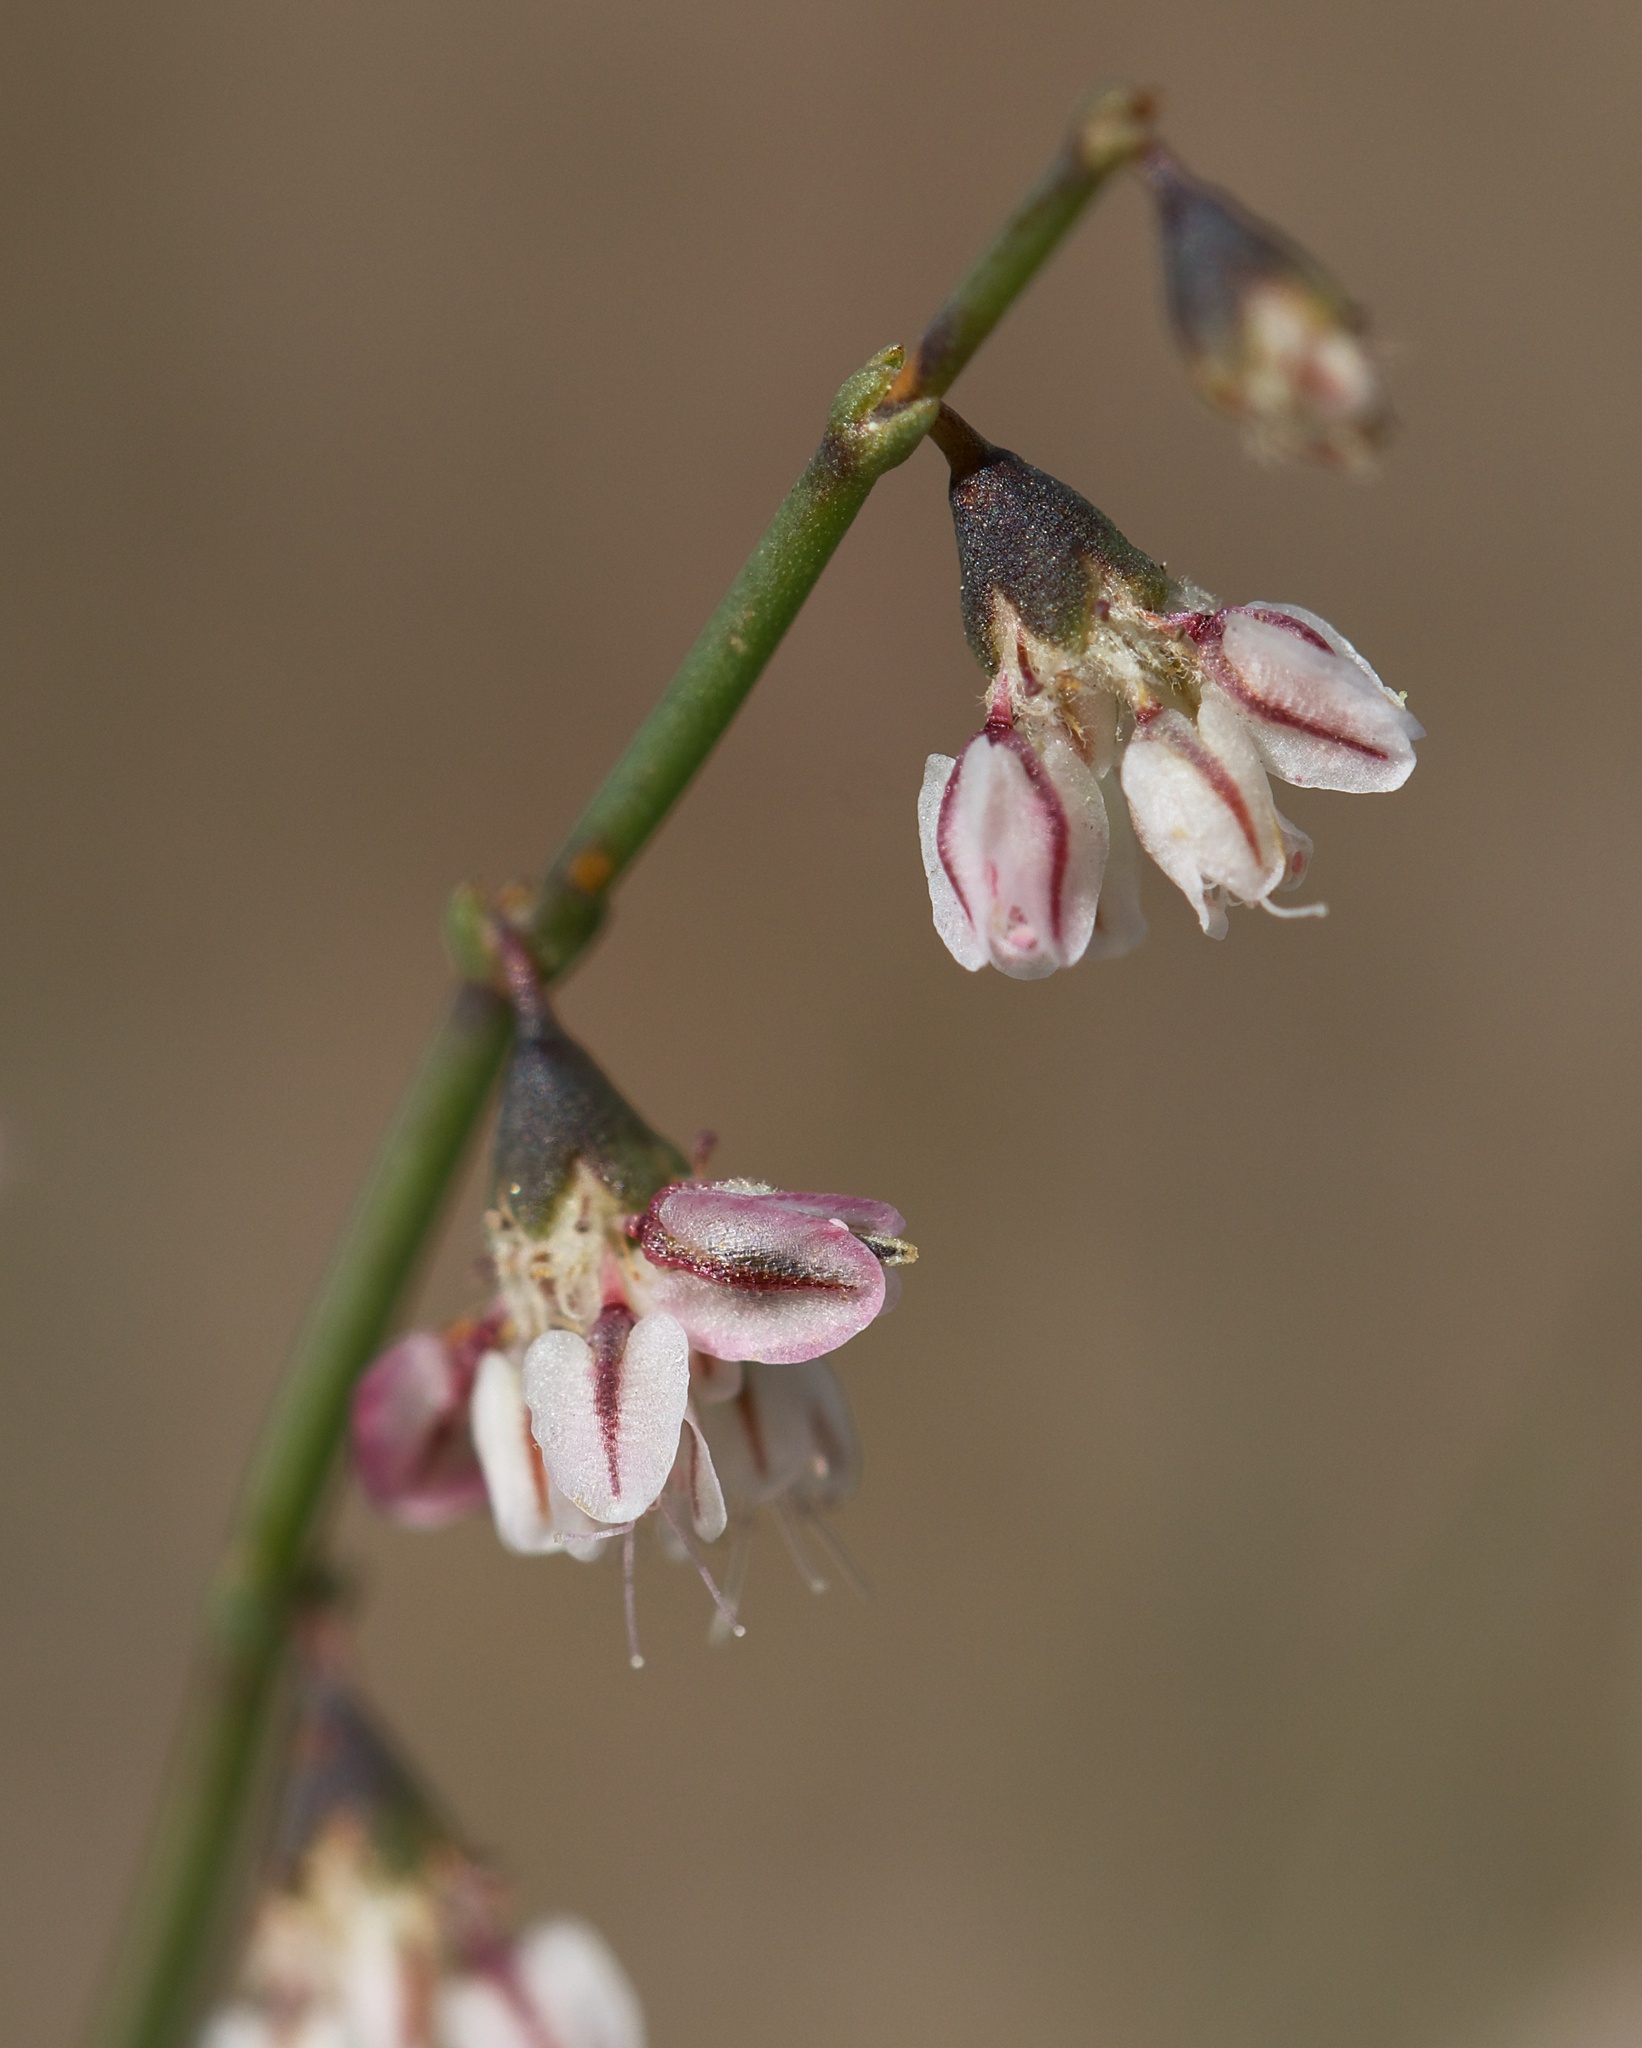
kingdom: Plantae
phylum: Tracheophyta
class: Magnoliopsida
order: Caryophyllales
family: Polygonaceae
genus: Eriogonum
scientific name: Eriogonum deflexum
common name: Skeleton-weed
